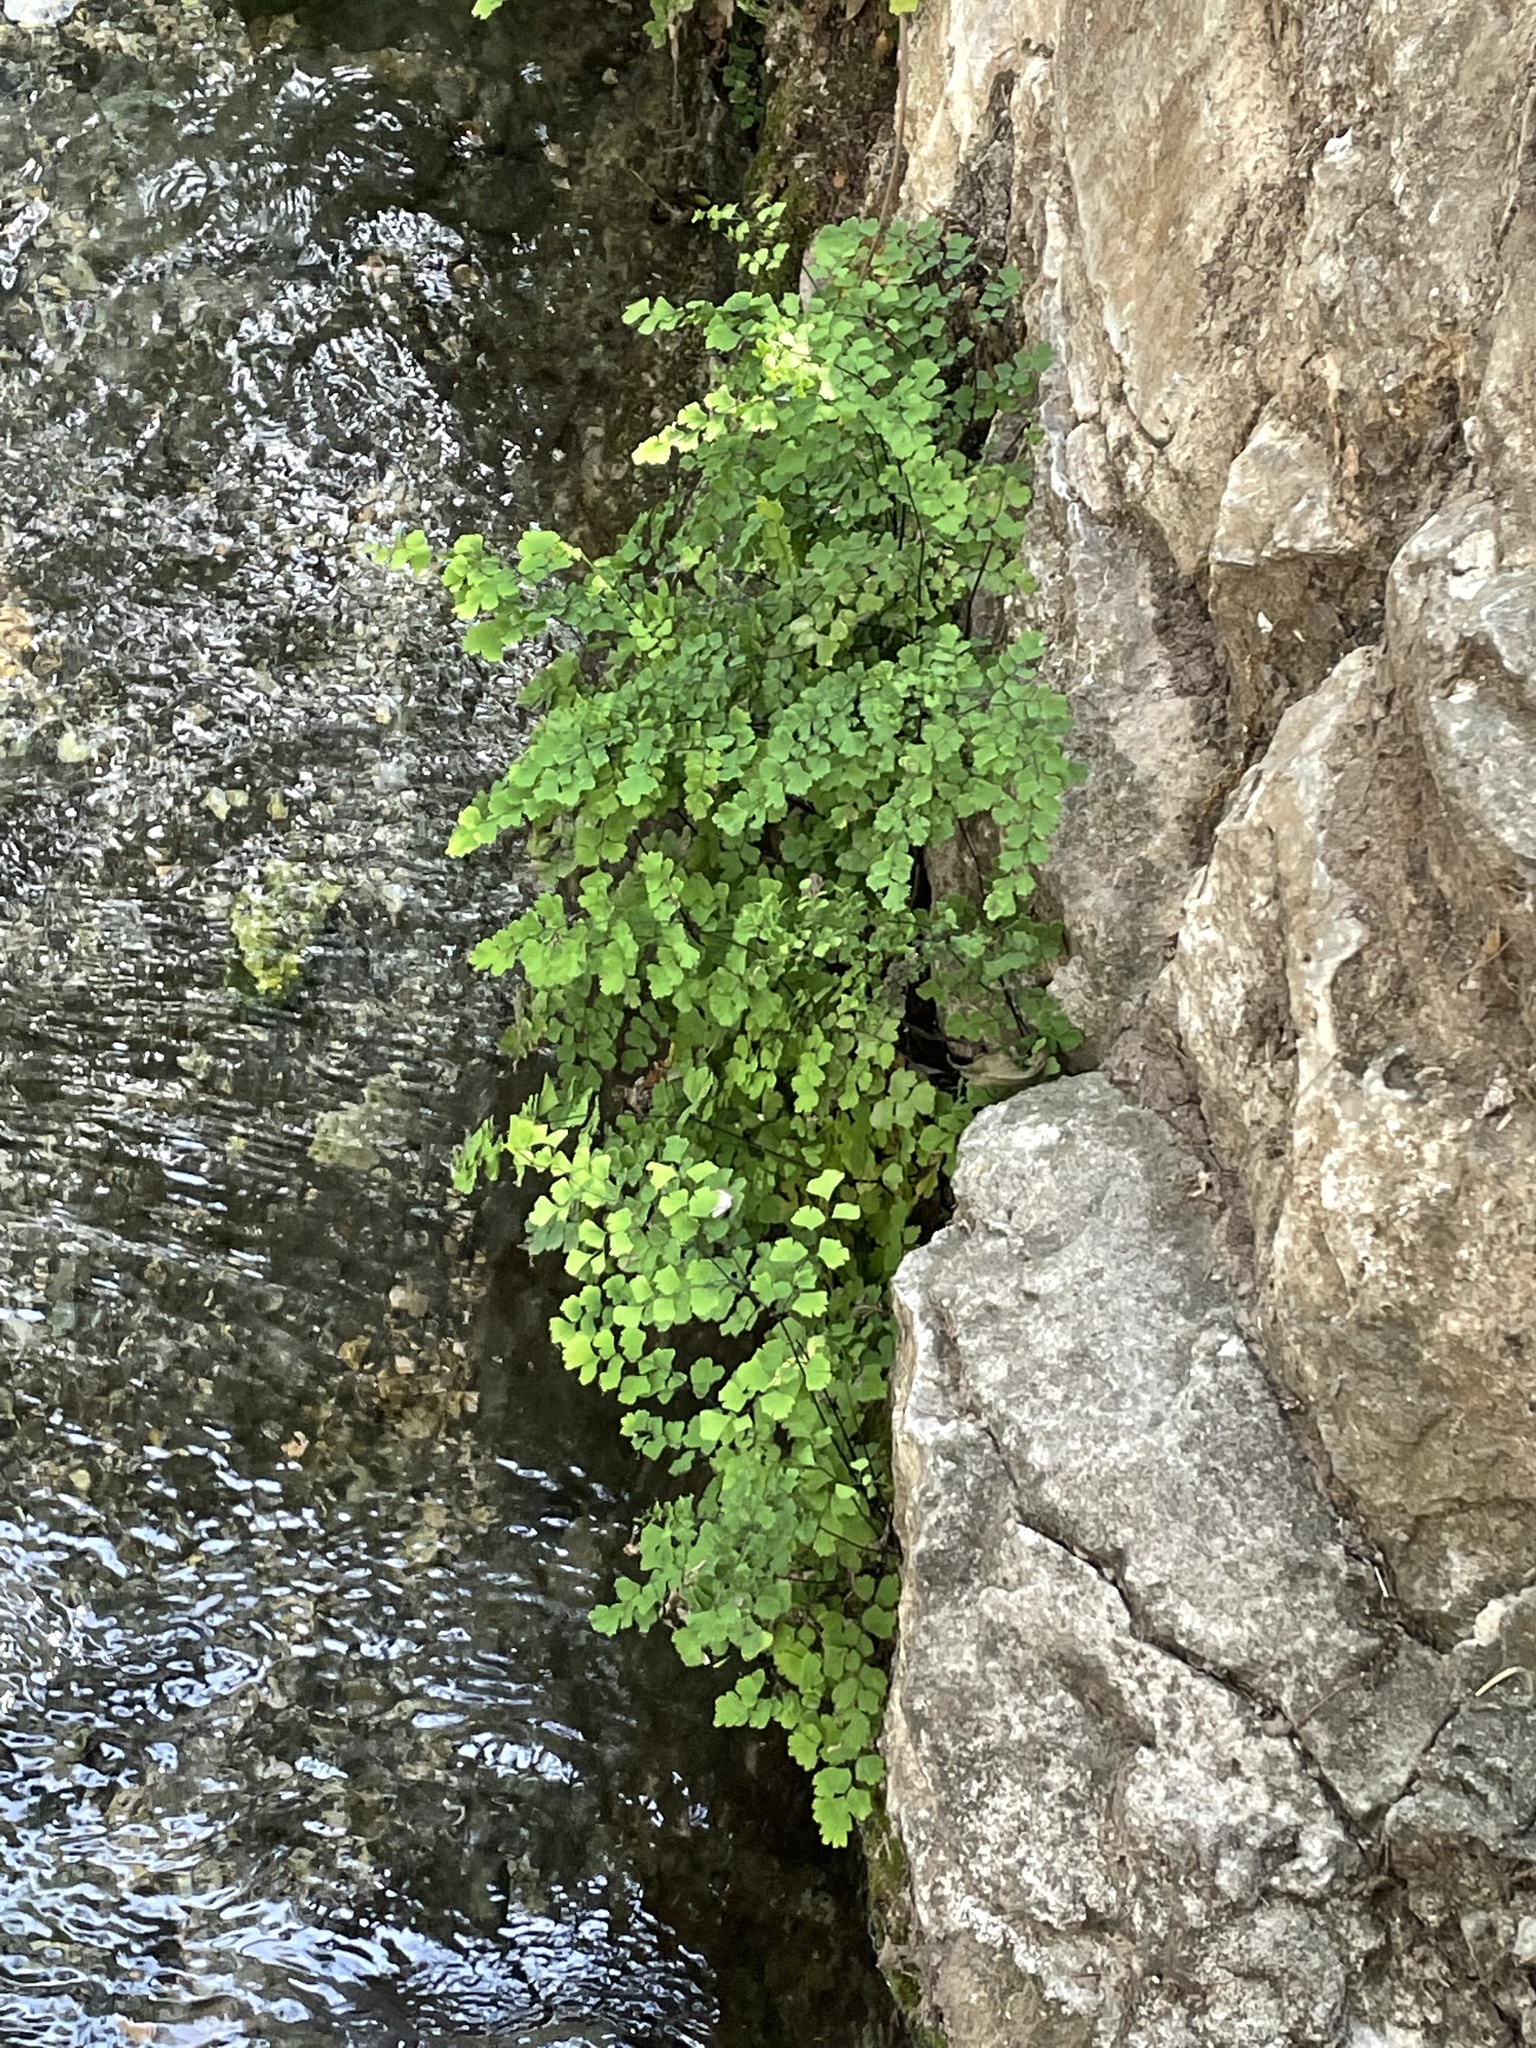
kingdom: Plantae
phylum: Tracheophyta
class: Polypodiopsida
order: Polypodiales
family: Pteridaceae
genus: Adiantum
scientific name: Adiantum capillus-veneris
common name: Maidenhair fern
